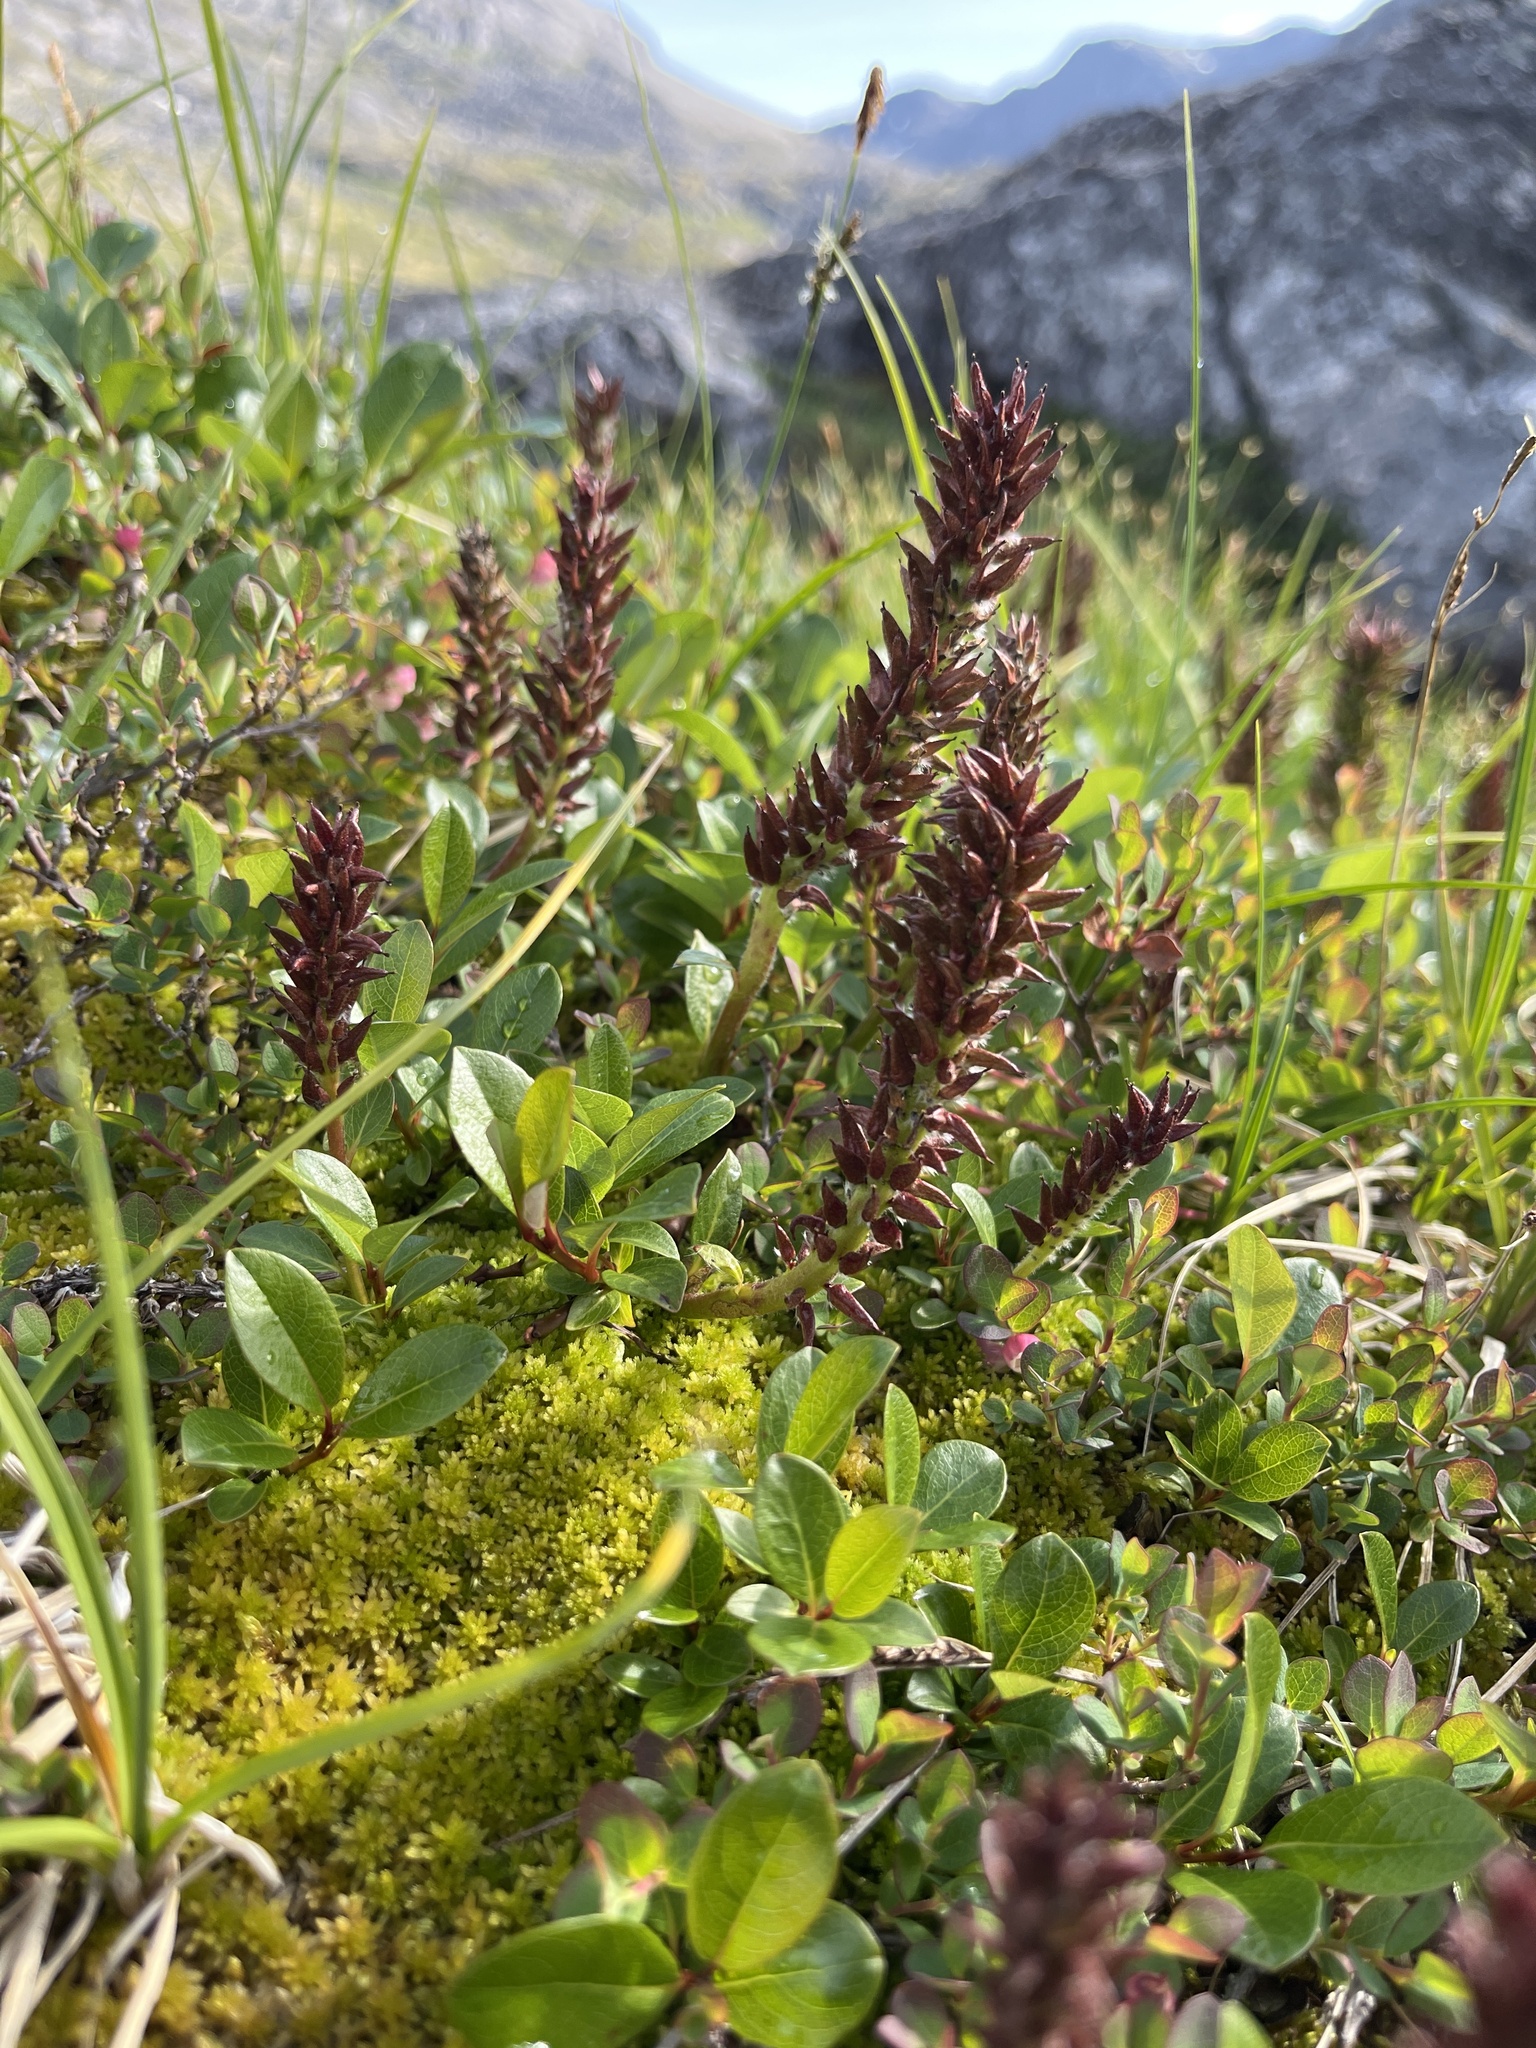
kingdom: Plantae
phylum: Tracheophyta
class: Magnoliopsida
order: Malpighiales
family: Salicaceae
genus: Salix
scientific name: Salix arctophila
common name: Greenland willow
